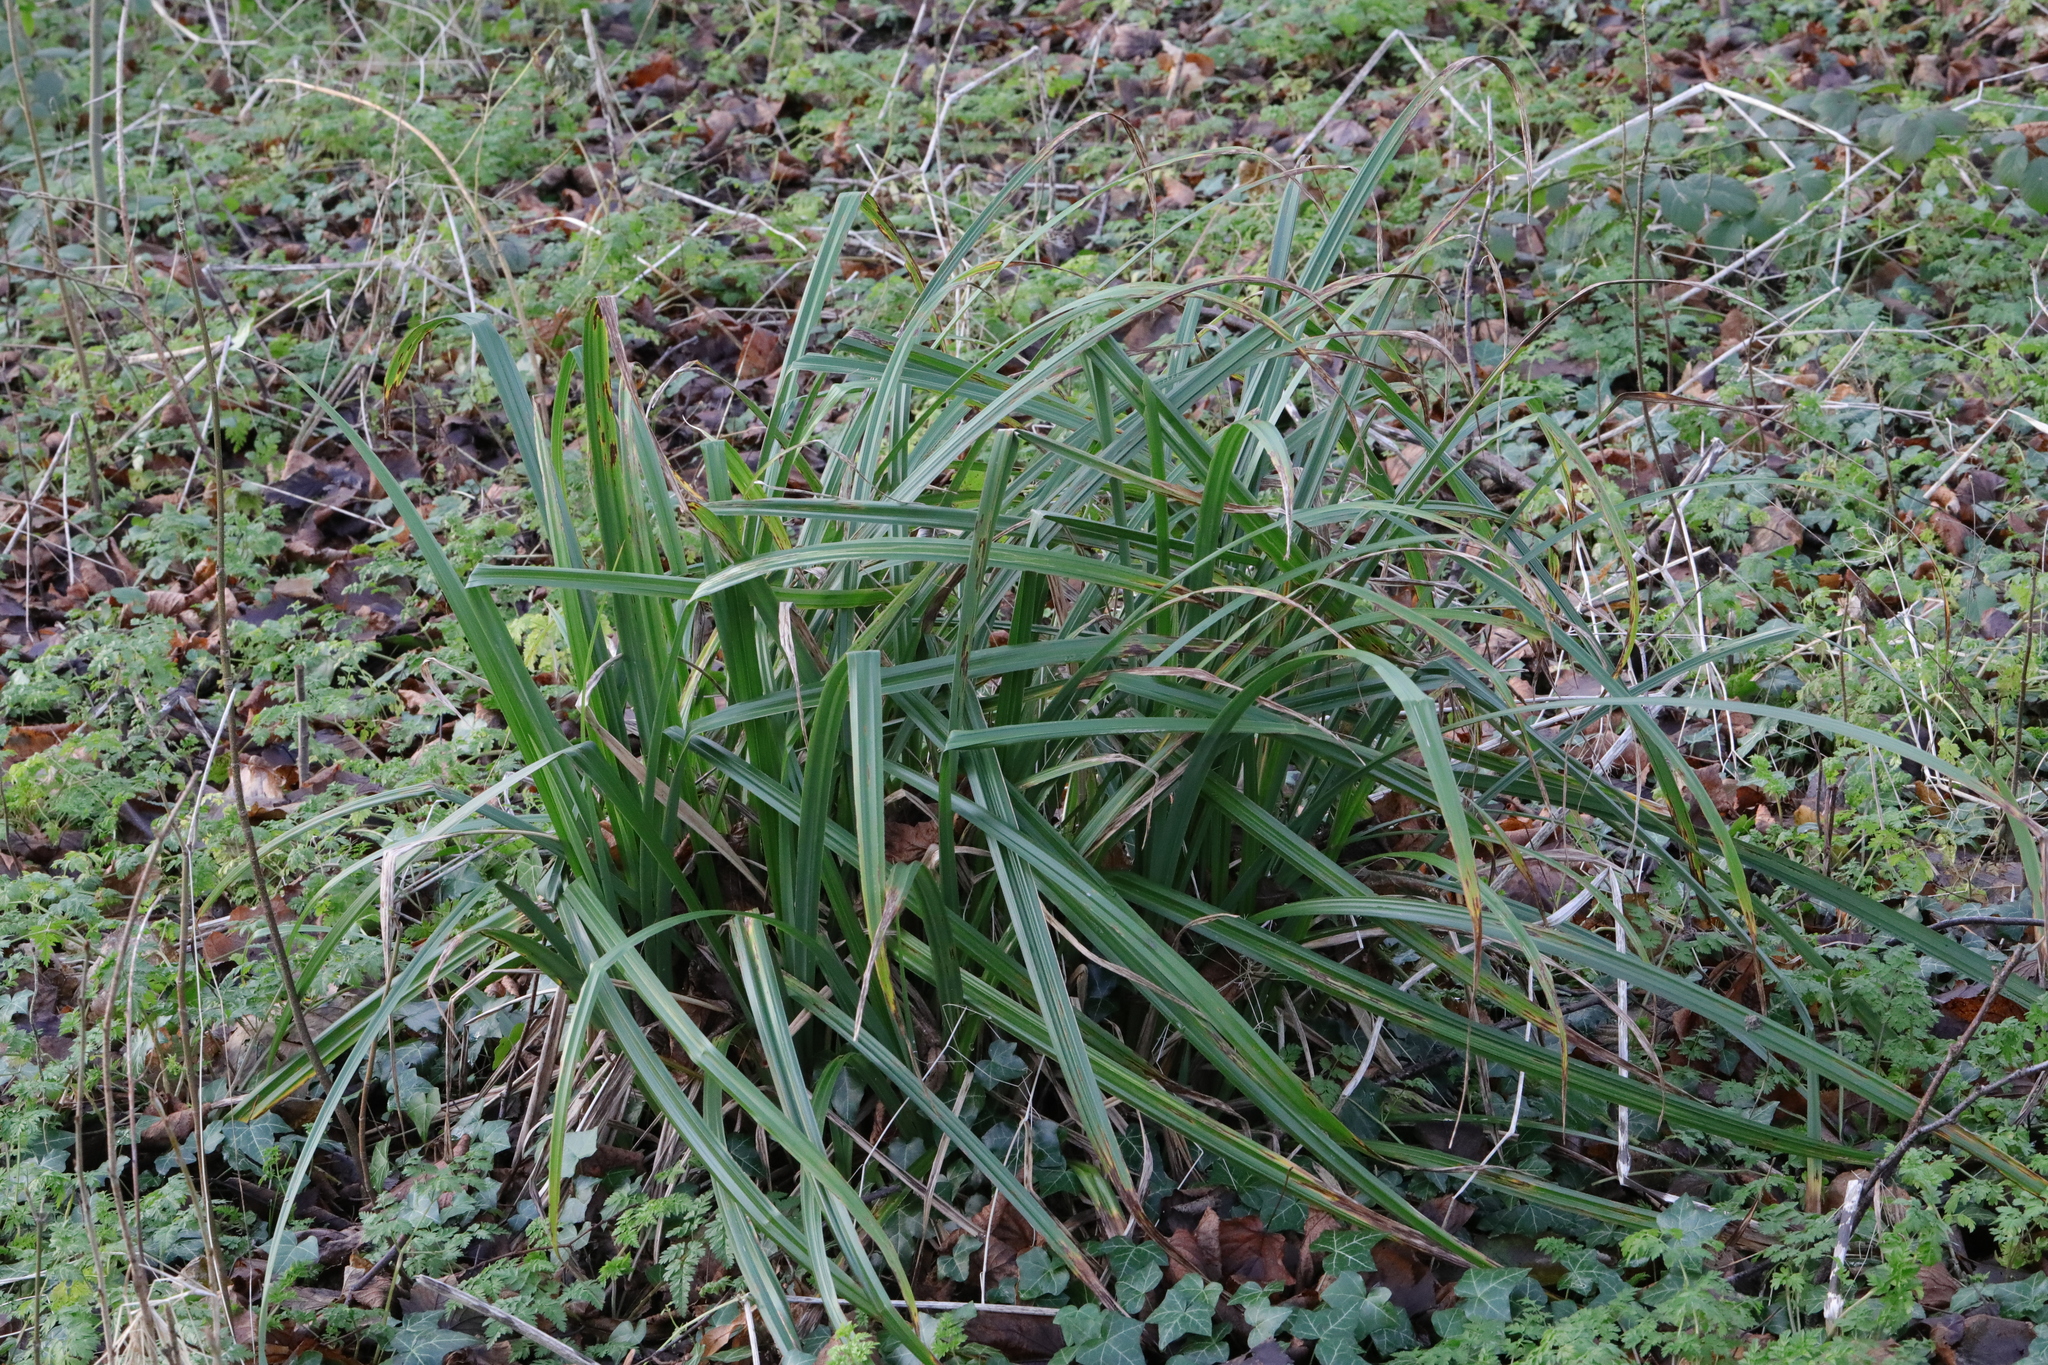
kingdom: Plantae
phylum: Tracheophyta
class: Liliopsida
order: Poales
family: Cyperaceae
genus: Carex
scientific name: Carex pendula
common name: Pendulous sedge
